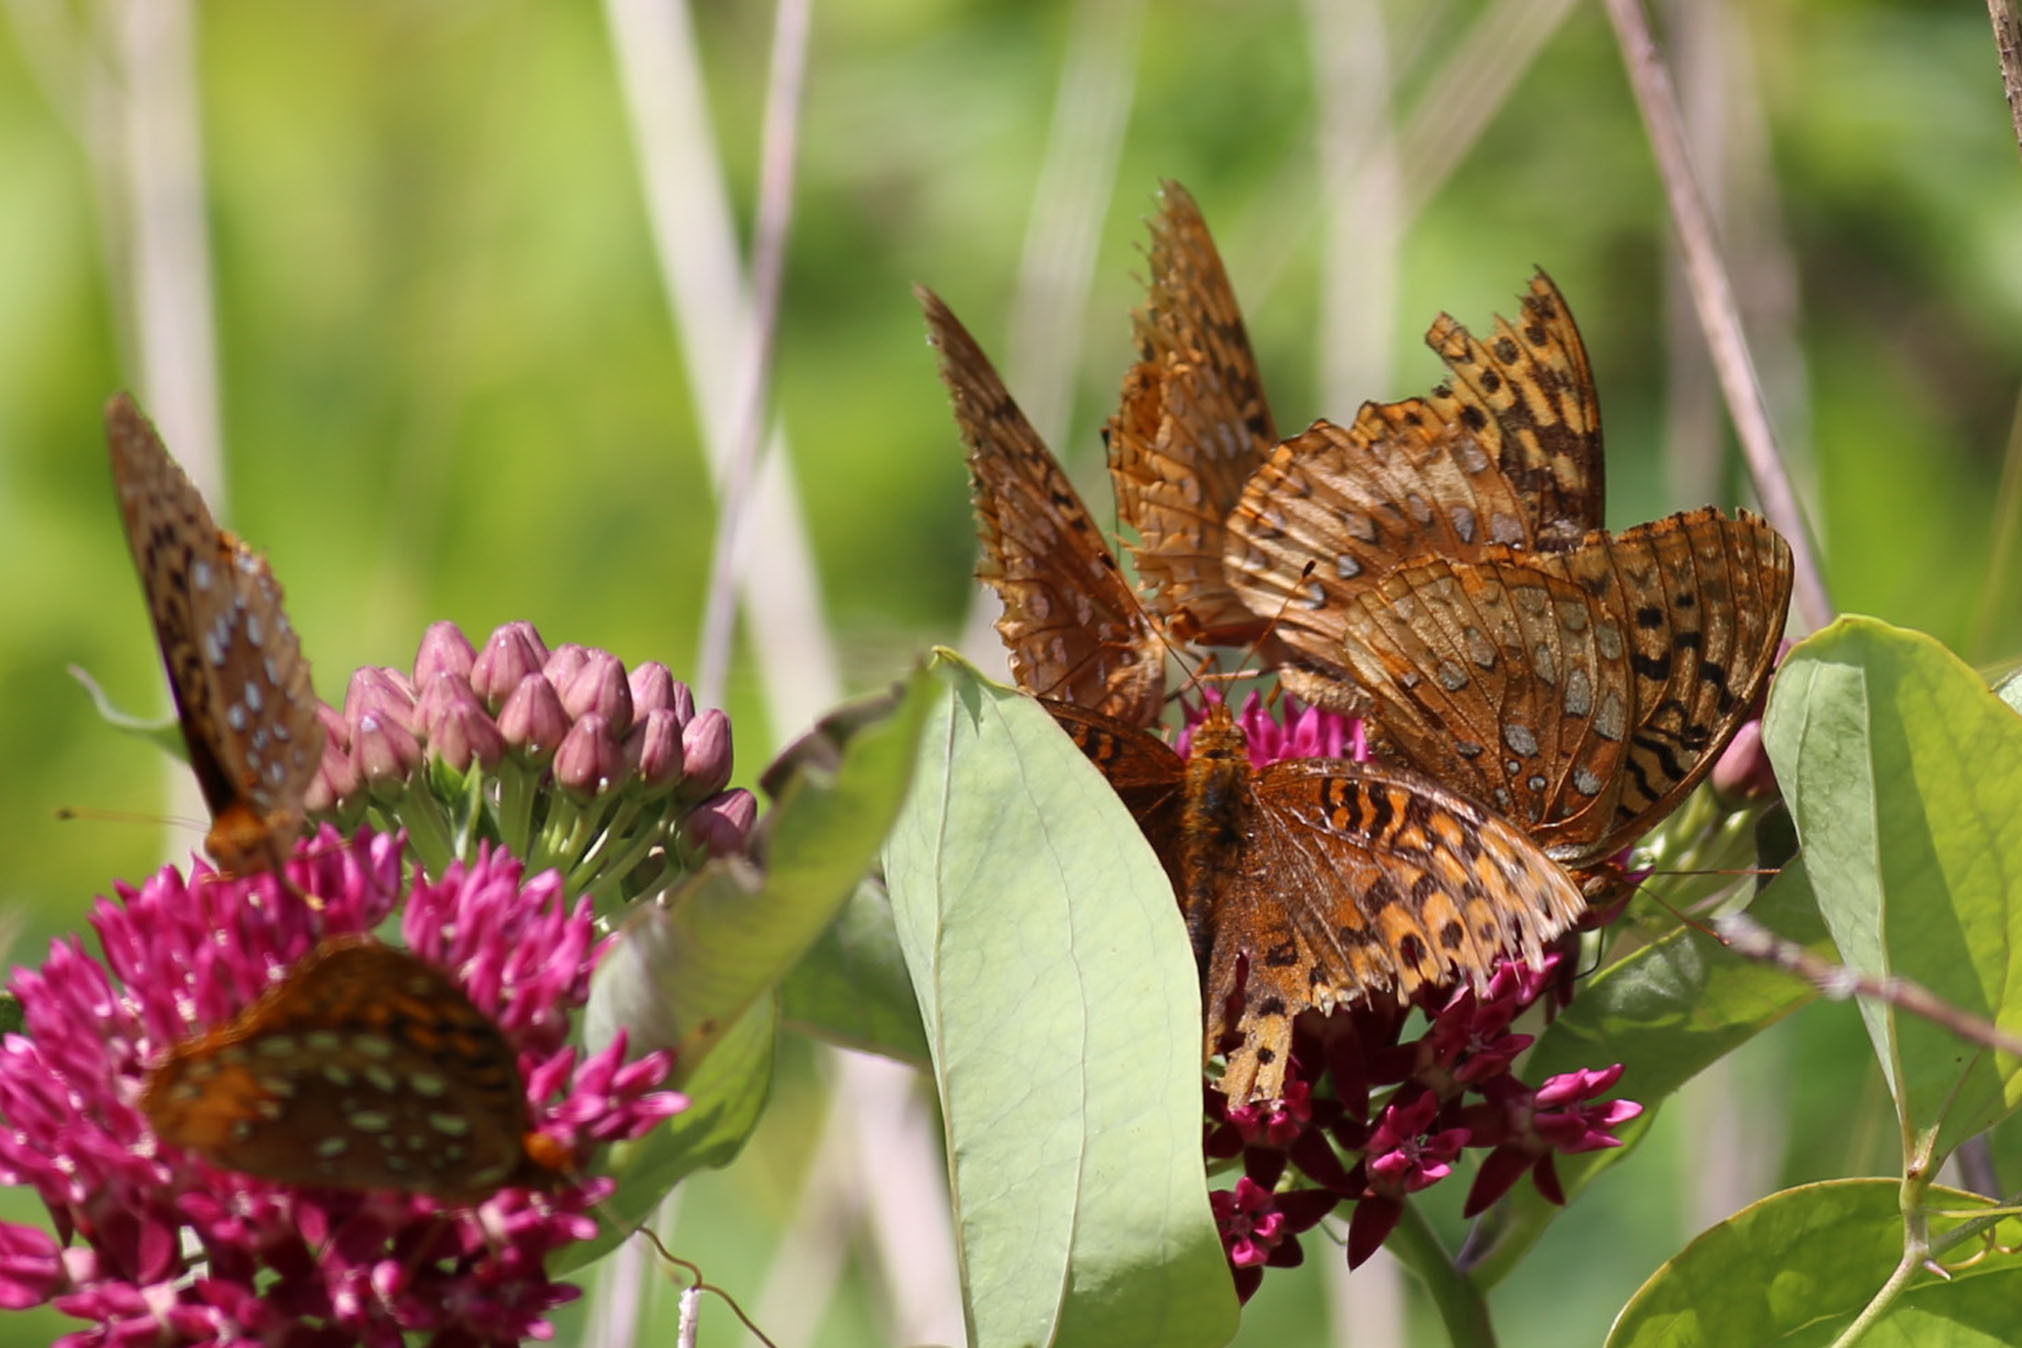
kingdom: Animalia
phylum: Arthropoda
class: Insecta
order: Lepidoptera
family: Nymphalidae
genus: Speyeria
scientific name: Speyeria cybele
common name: Great spangled fritillary
